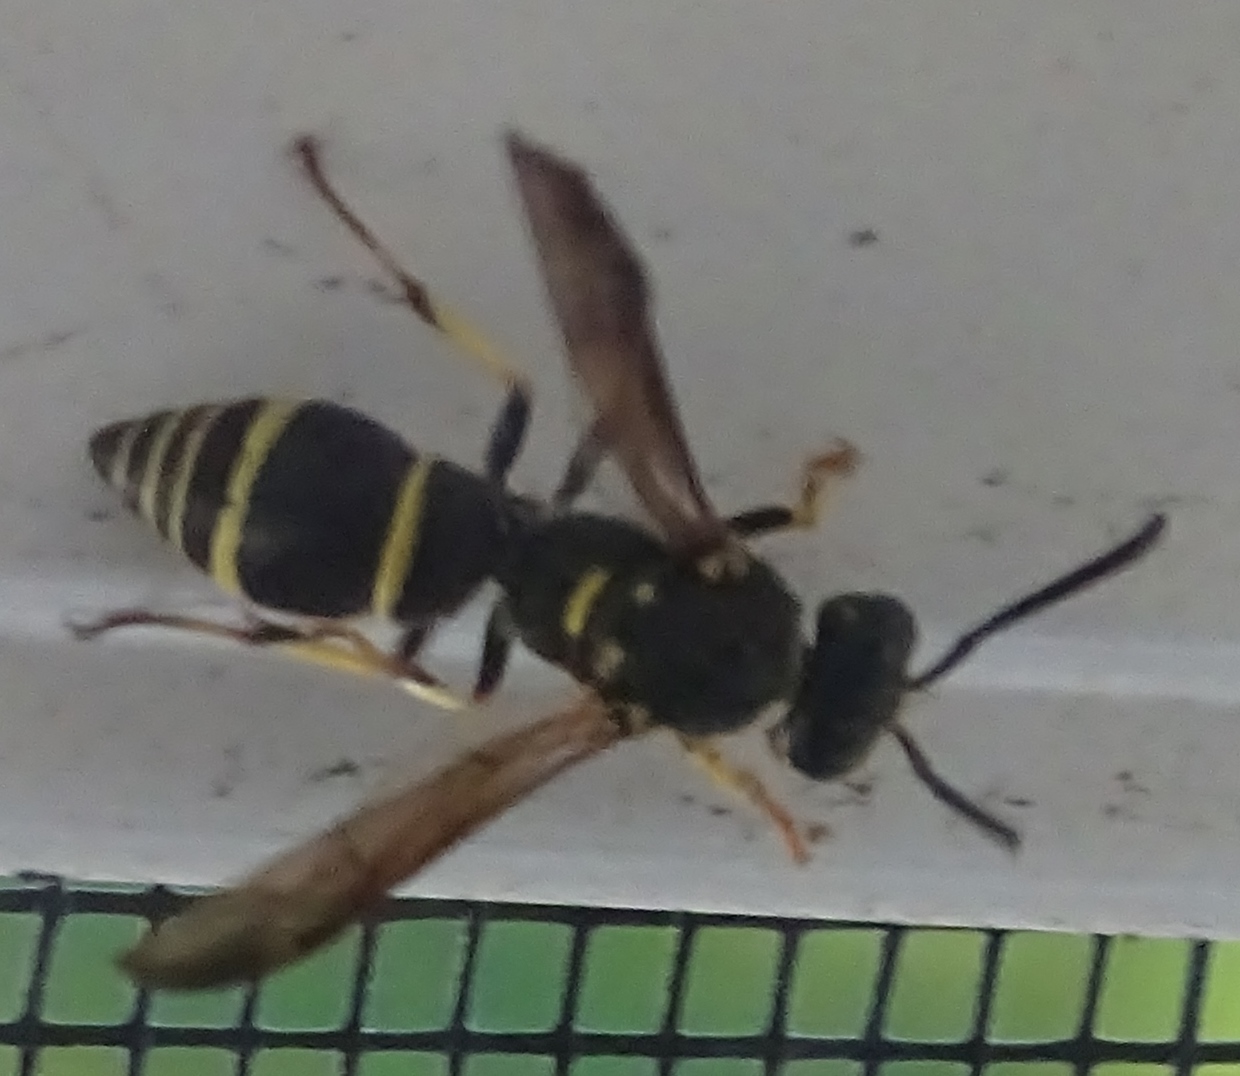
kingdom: Animalia
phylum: Arthropoda
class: Insecta
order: Hymenoptera
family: Vespidae
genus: Ancistrocerus
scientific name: Ancistrocerus adiabatus
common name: Bramble mason wasp
